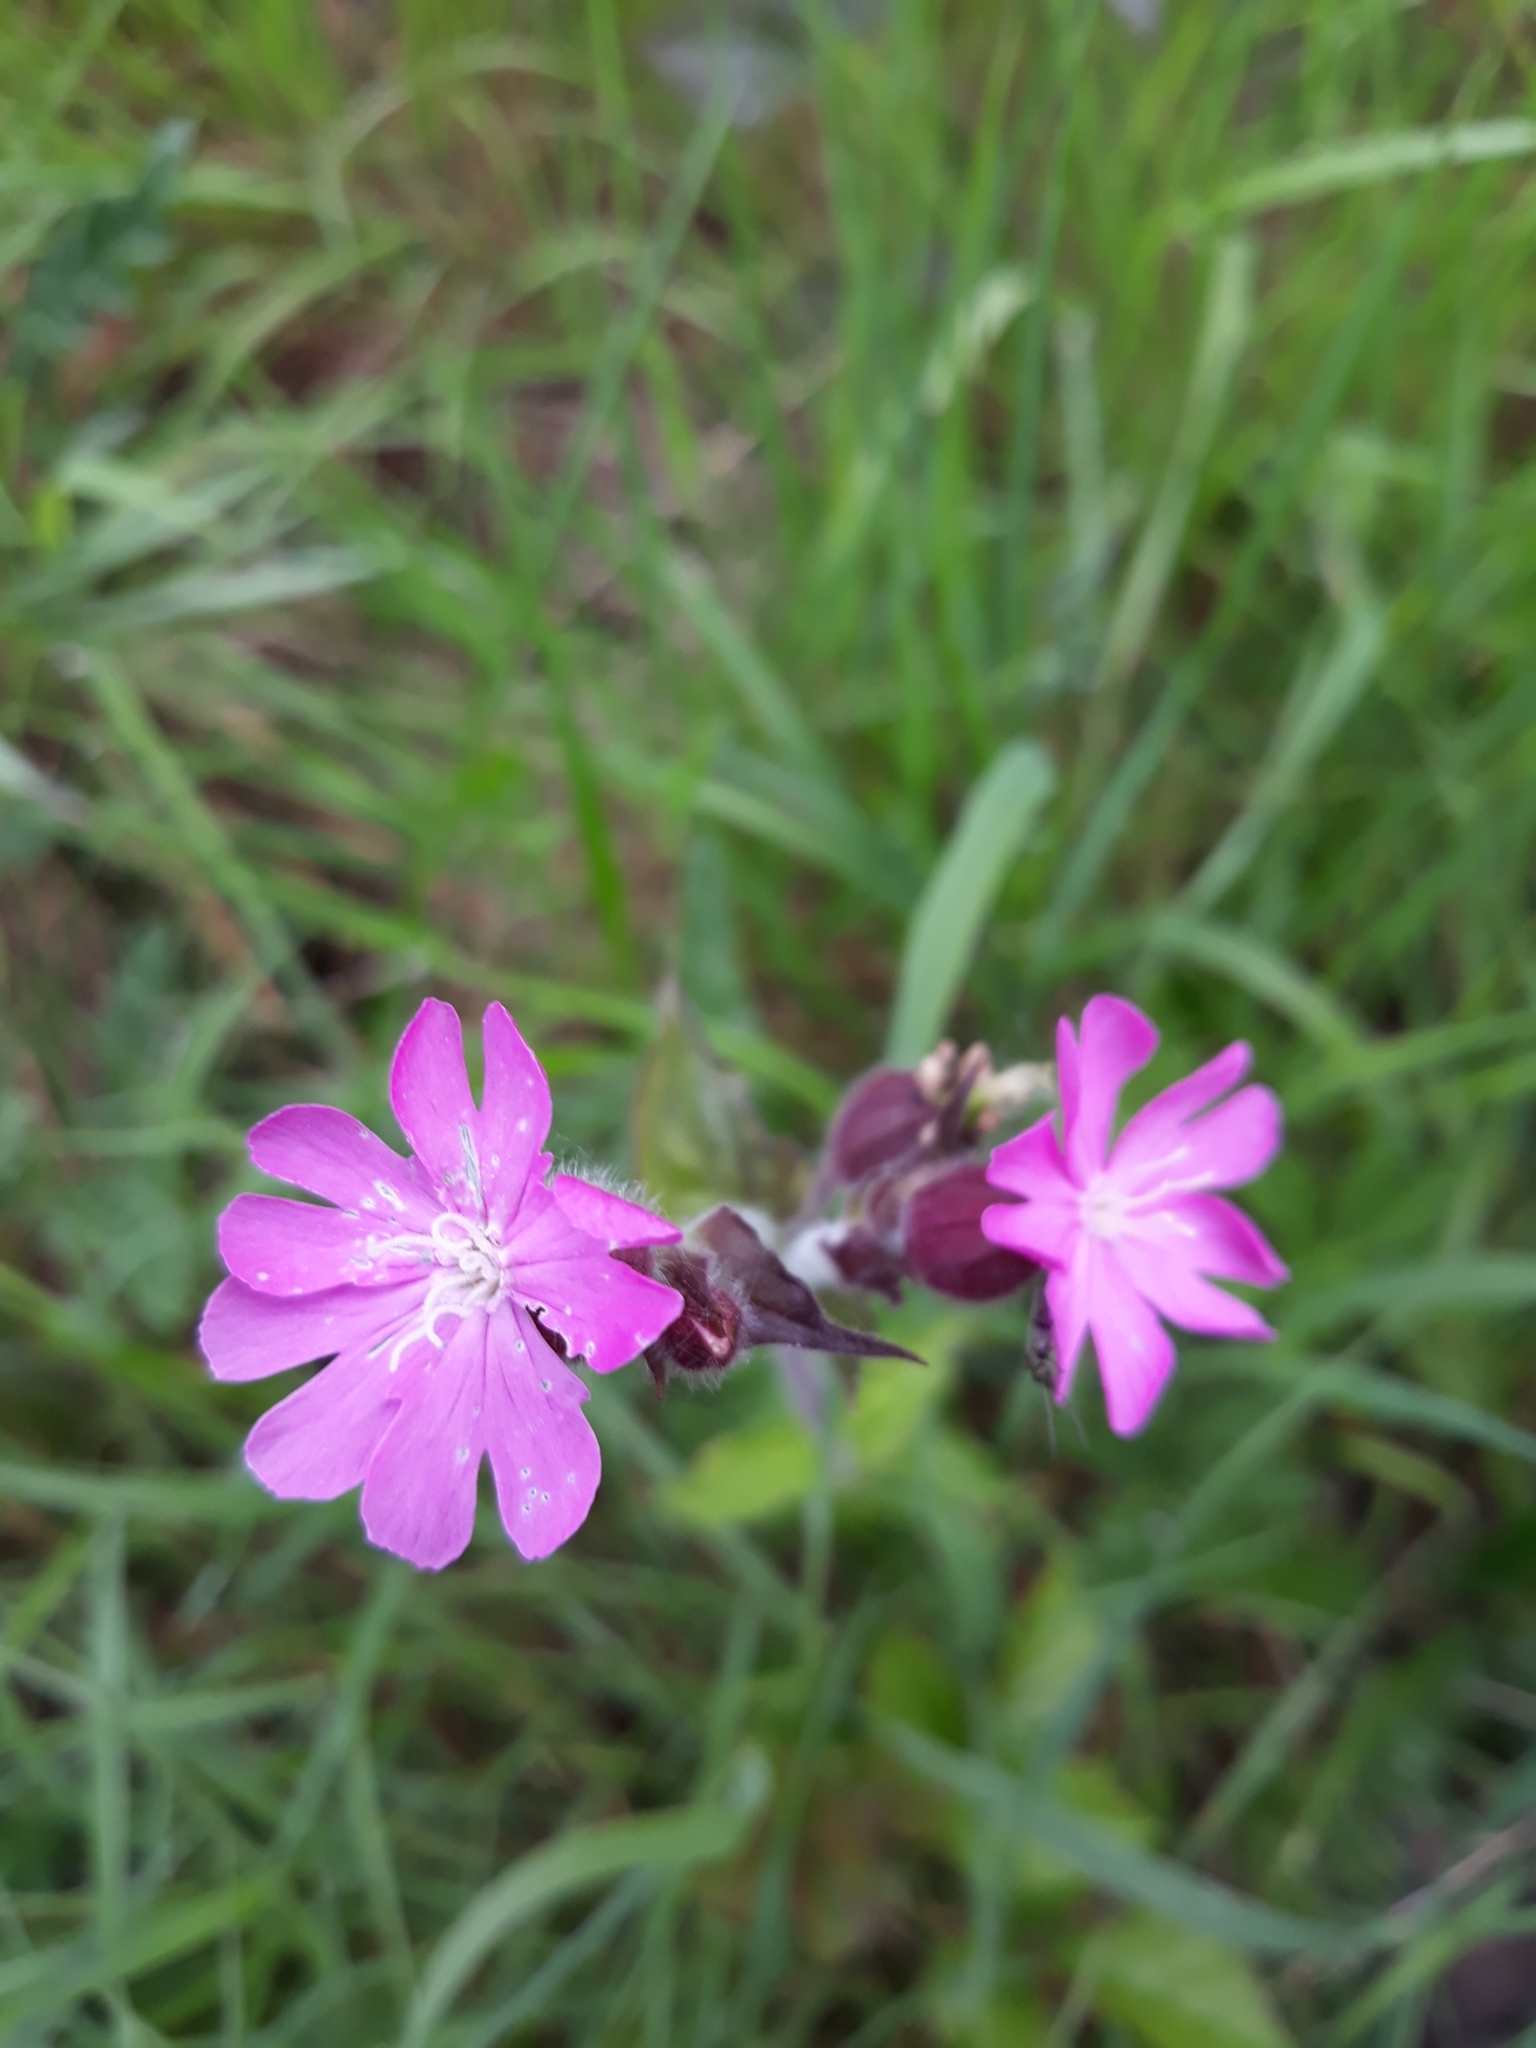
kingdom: Plantae
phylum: Tracheophyta
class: Magnoliopsida
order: Caryophyllales
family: Caryophyllaceae
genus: Silene
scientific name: Silene dioica
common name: Red campion
